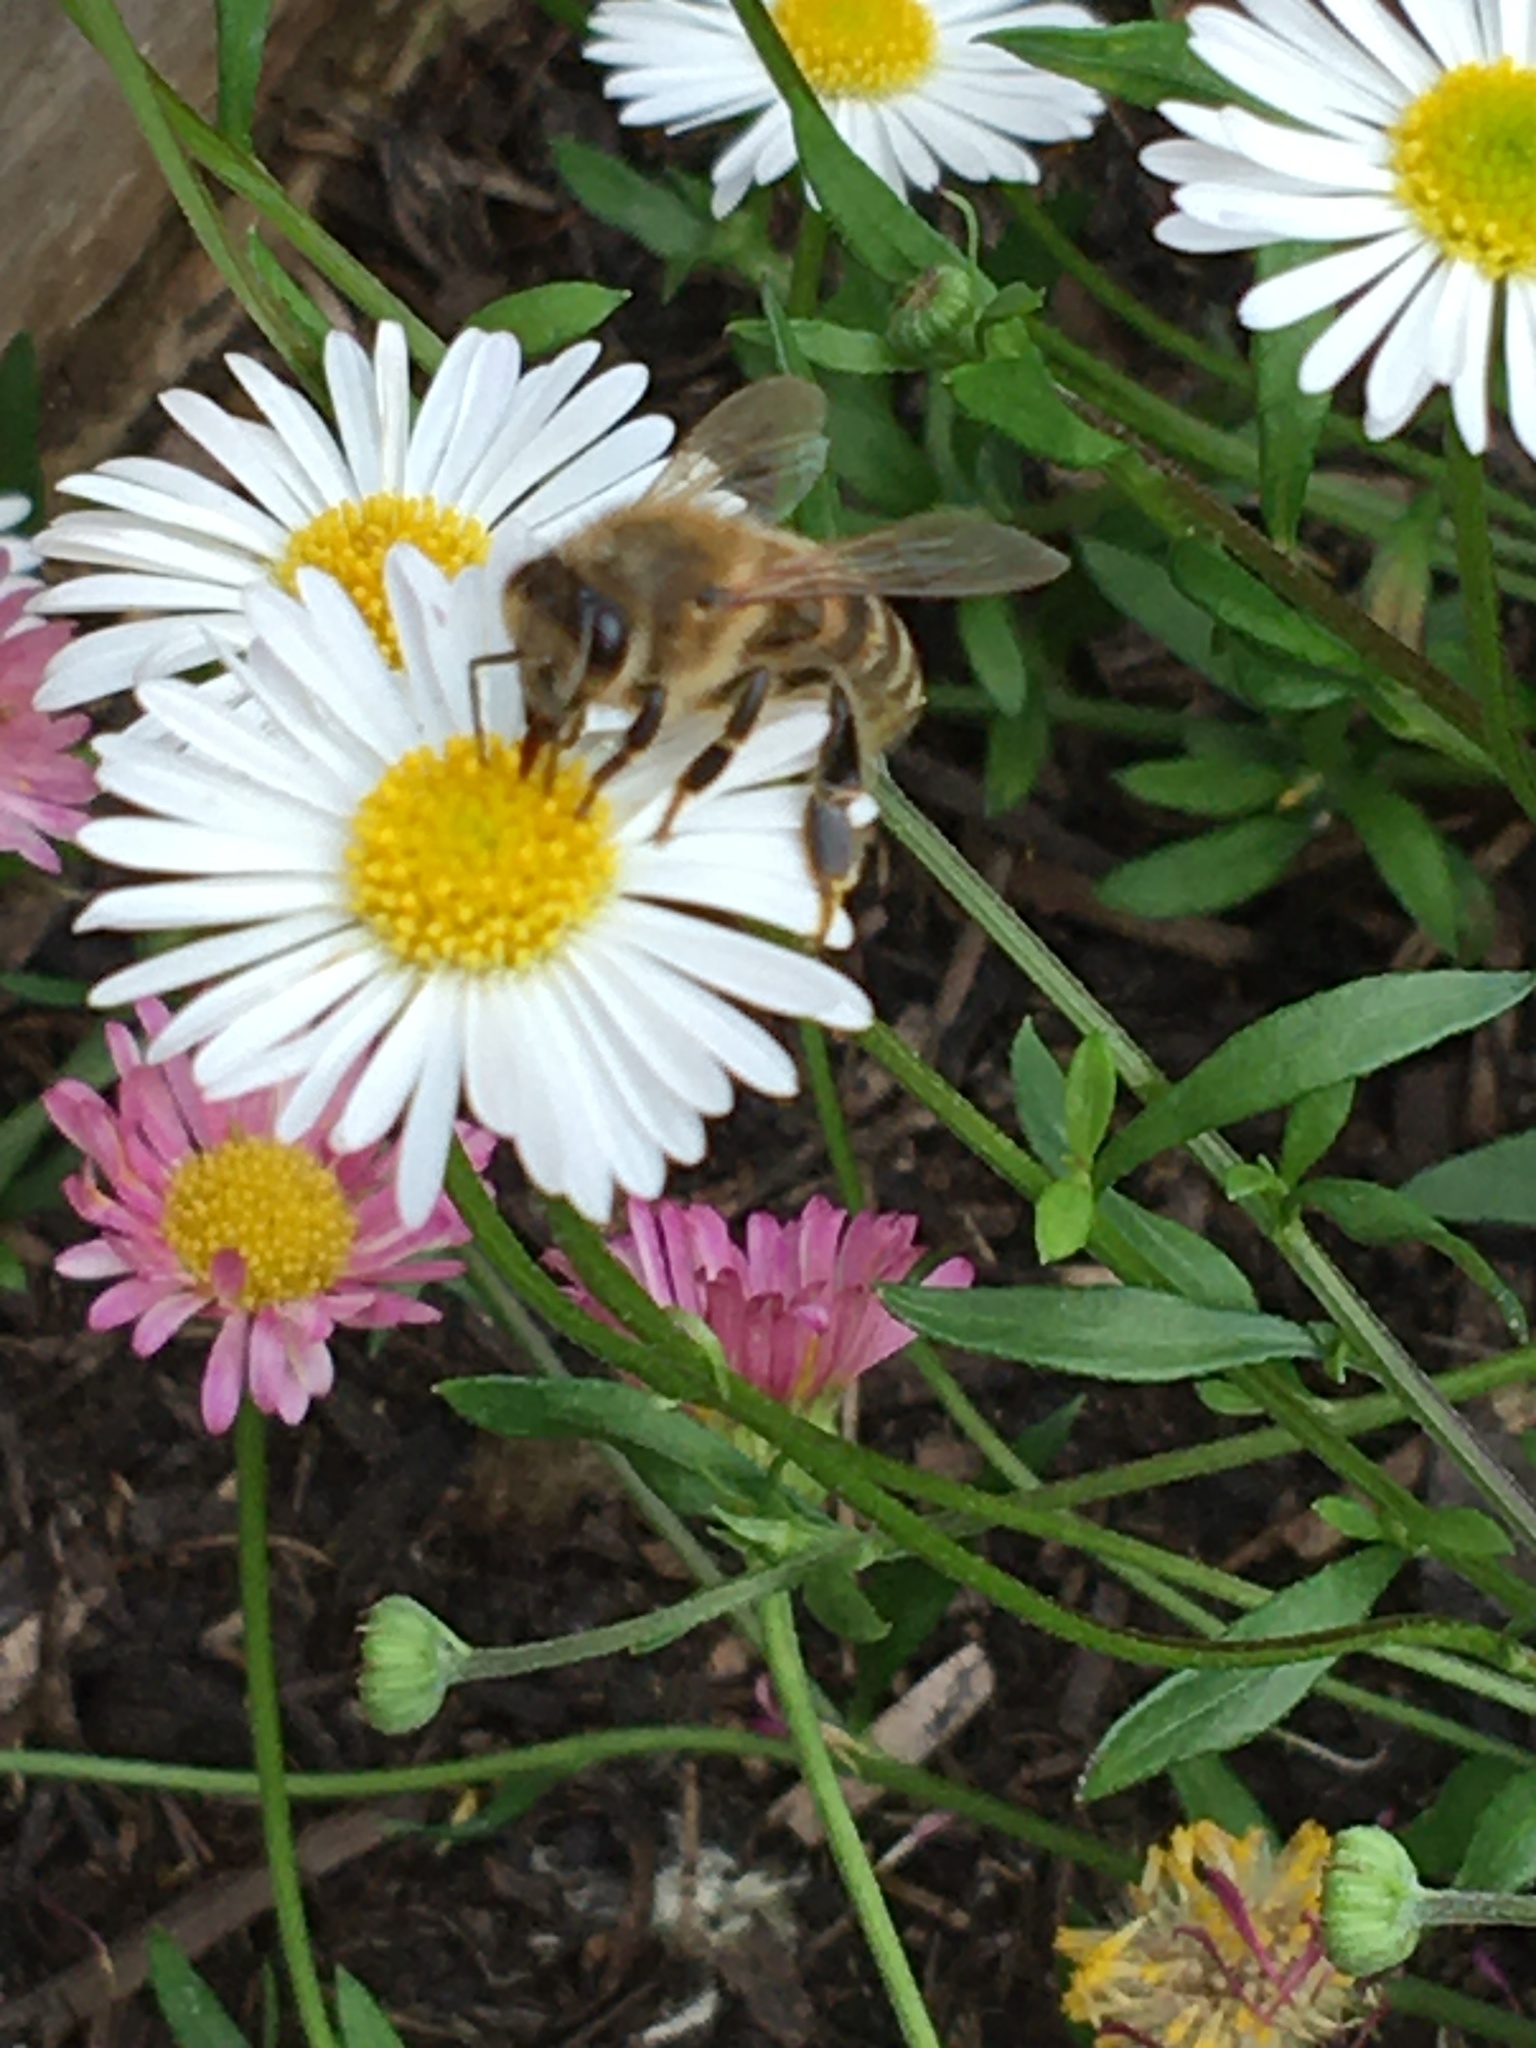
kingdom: Animalia
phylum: Arthropoda
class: Insecta
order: Hymenoptera
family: Apidae
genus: Apis
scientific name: Apis mellifera
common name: Honey bee
